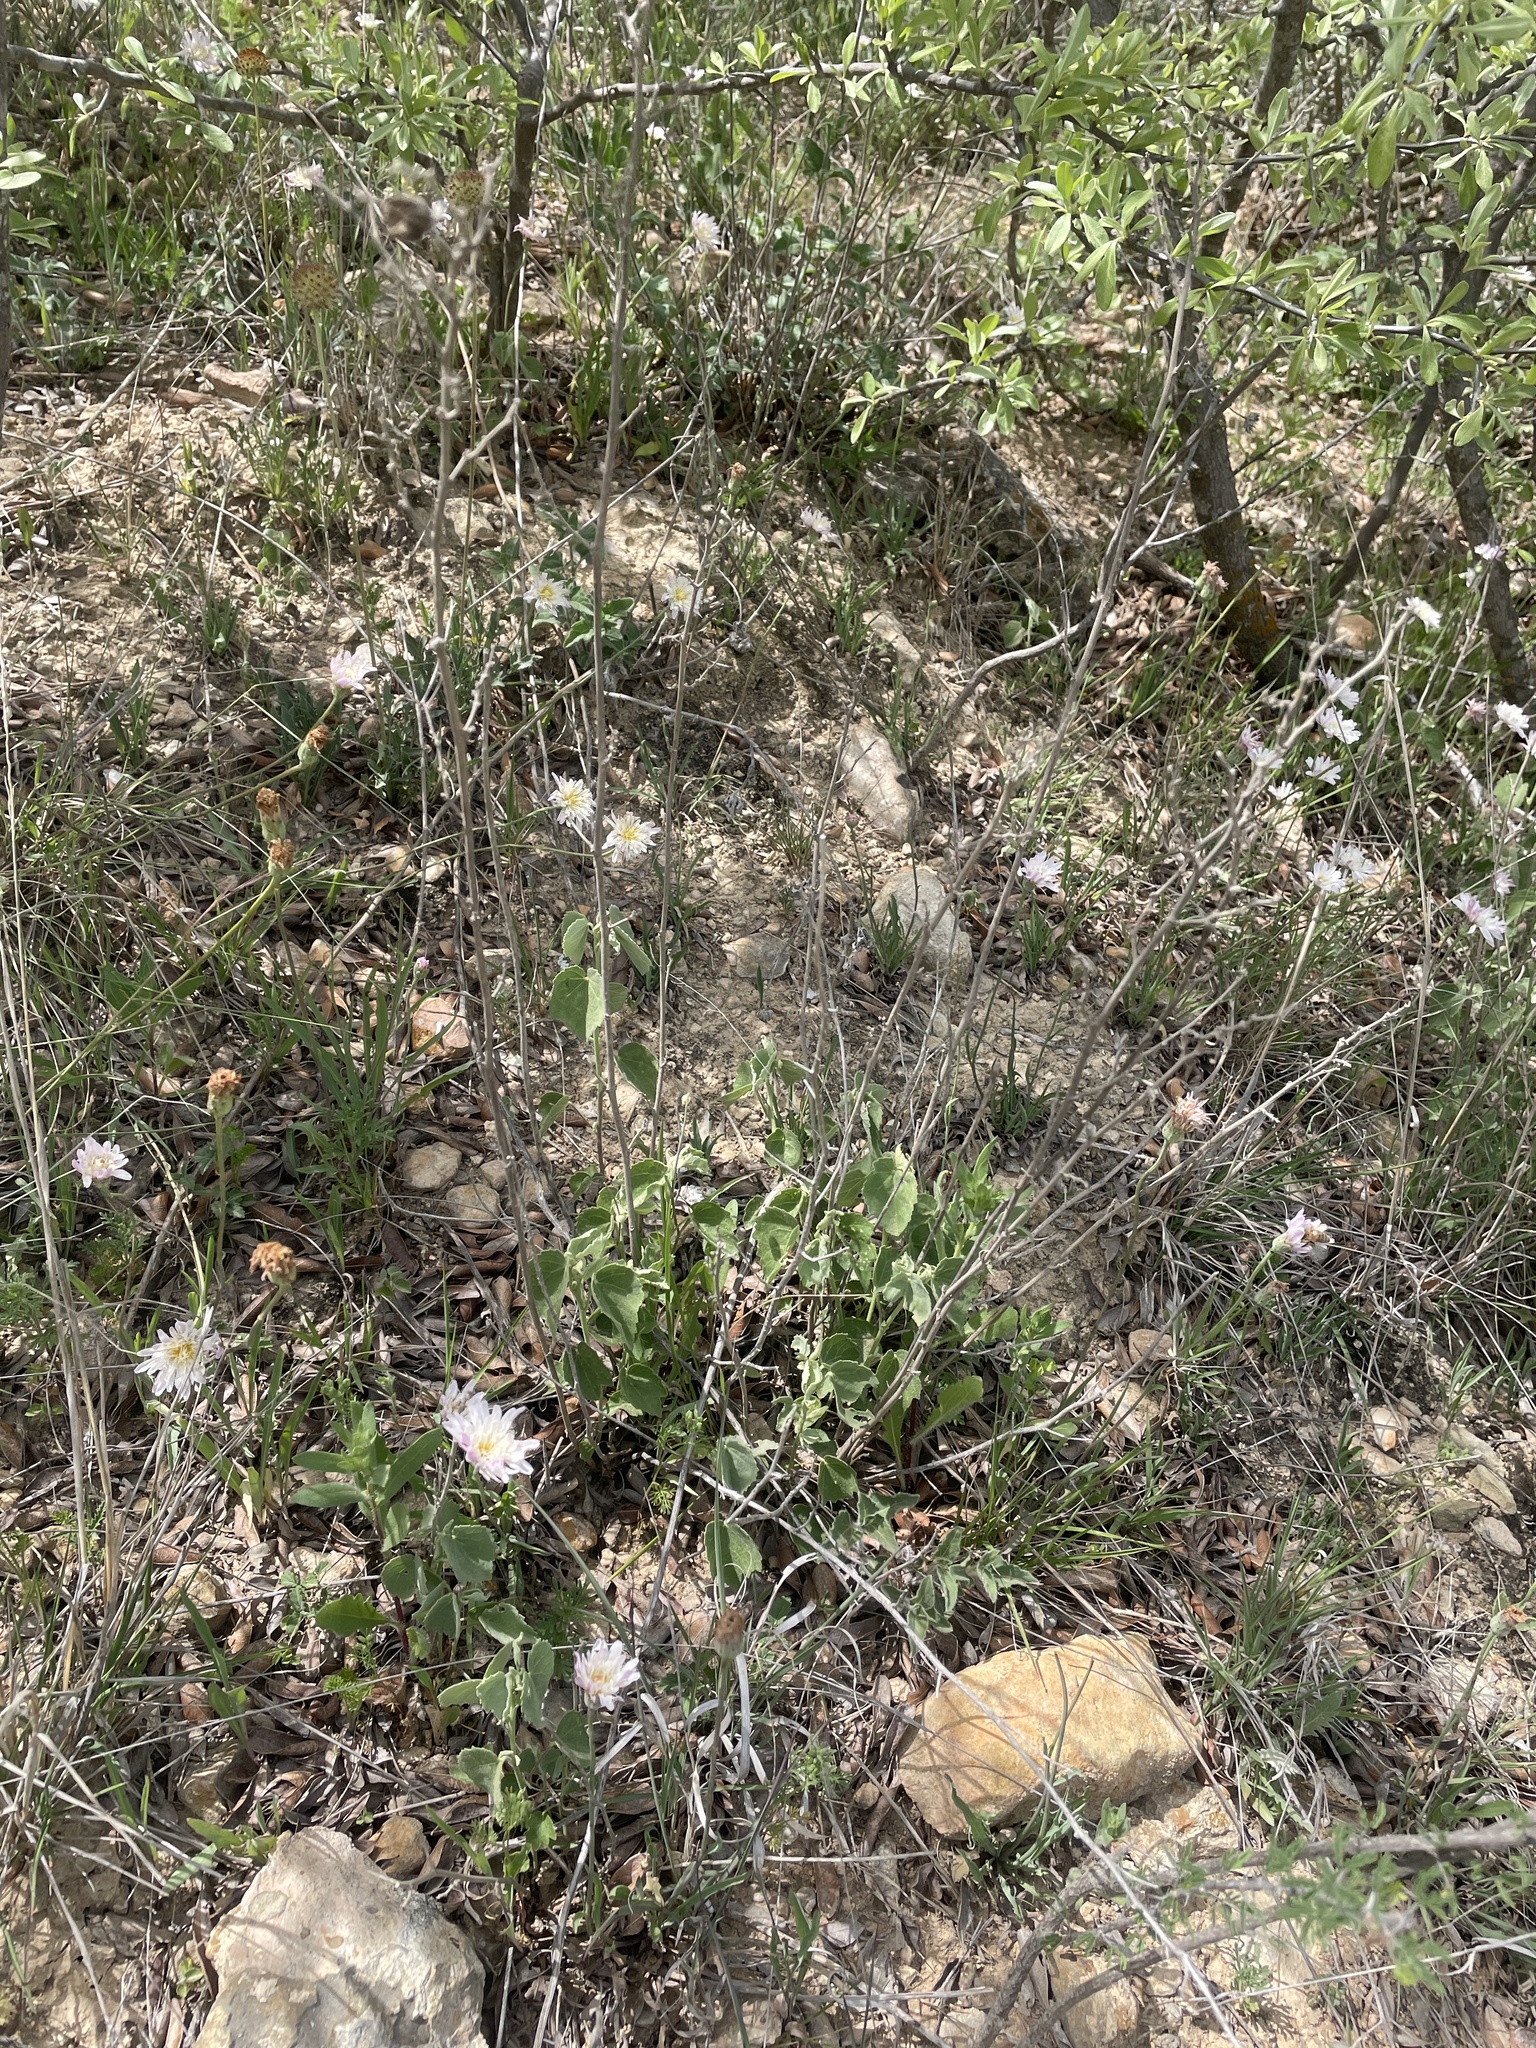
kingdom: Plantae
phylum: Tracheophyta
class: Magnoliopsida
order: Malvales
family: Malvaceae
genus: Abutilon
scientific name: Abutilon fruticosum
